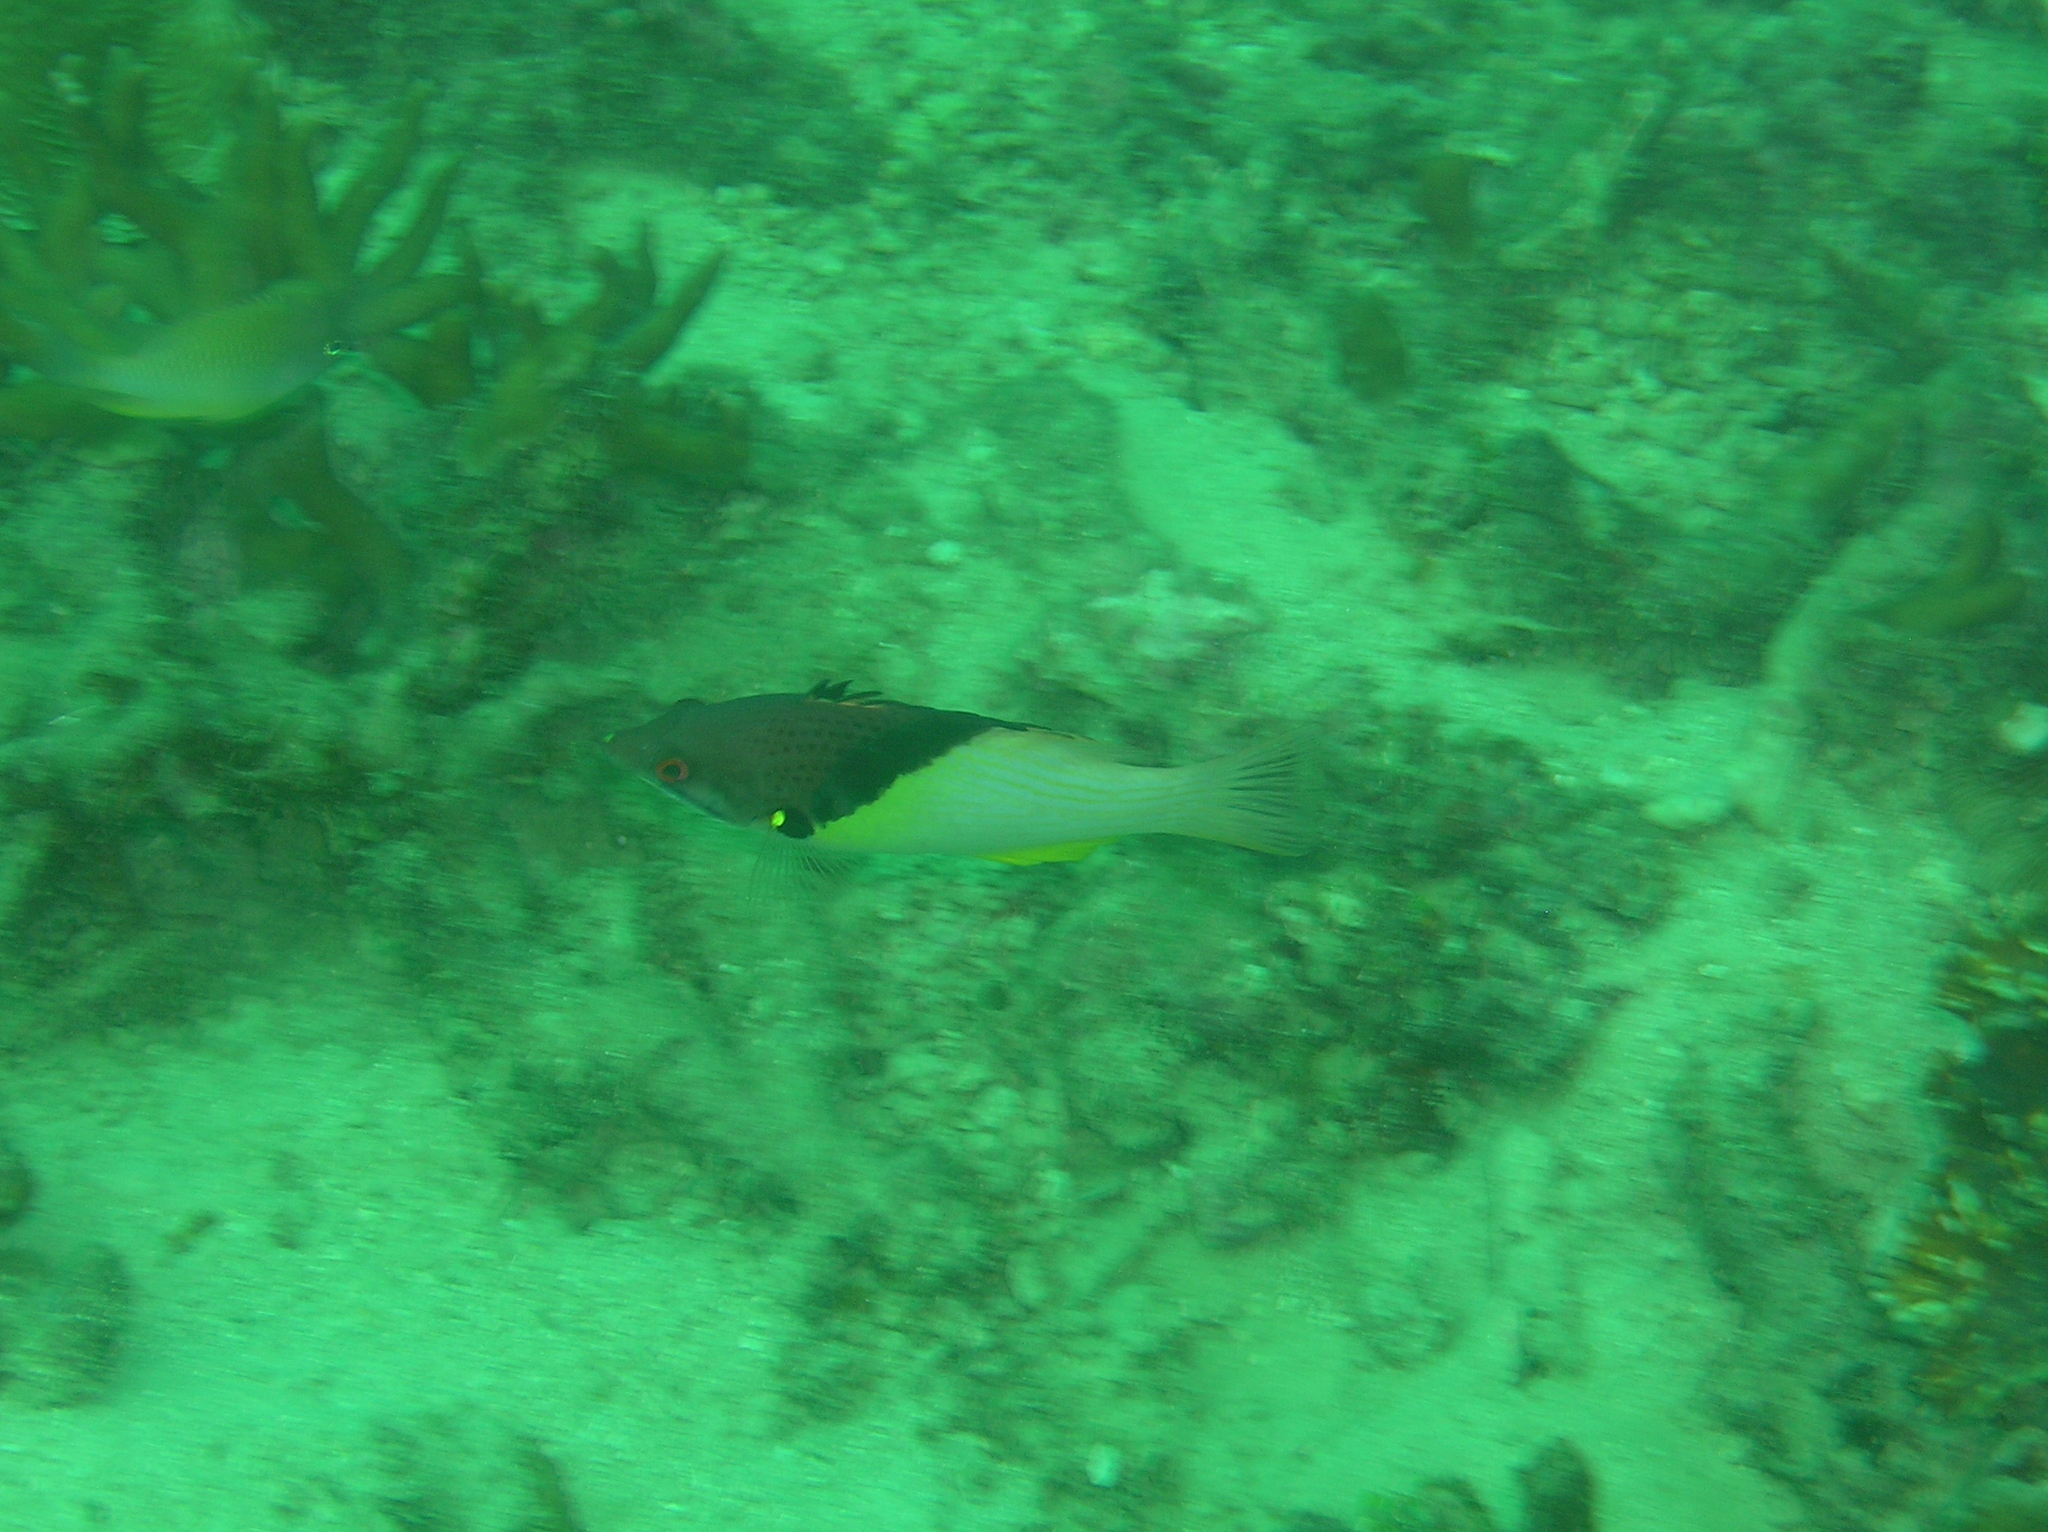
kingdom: Animalia
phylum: Chordata
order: Perciformes
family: Labridae
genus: Bodianus
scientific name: Bodianus mesothorax
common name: Coral hogfish
